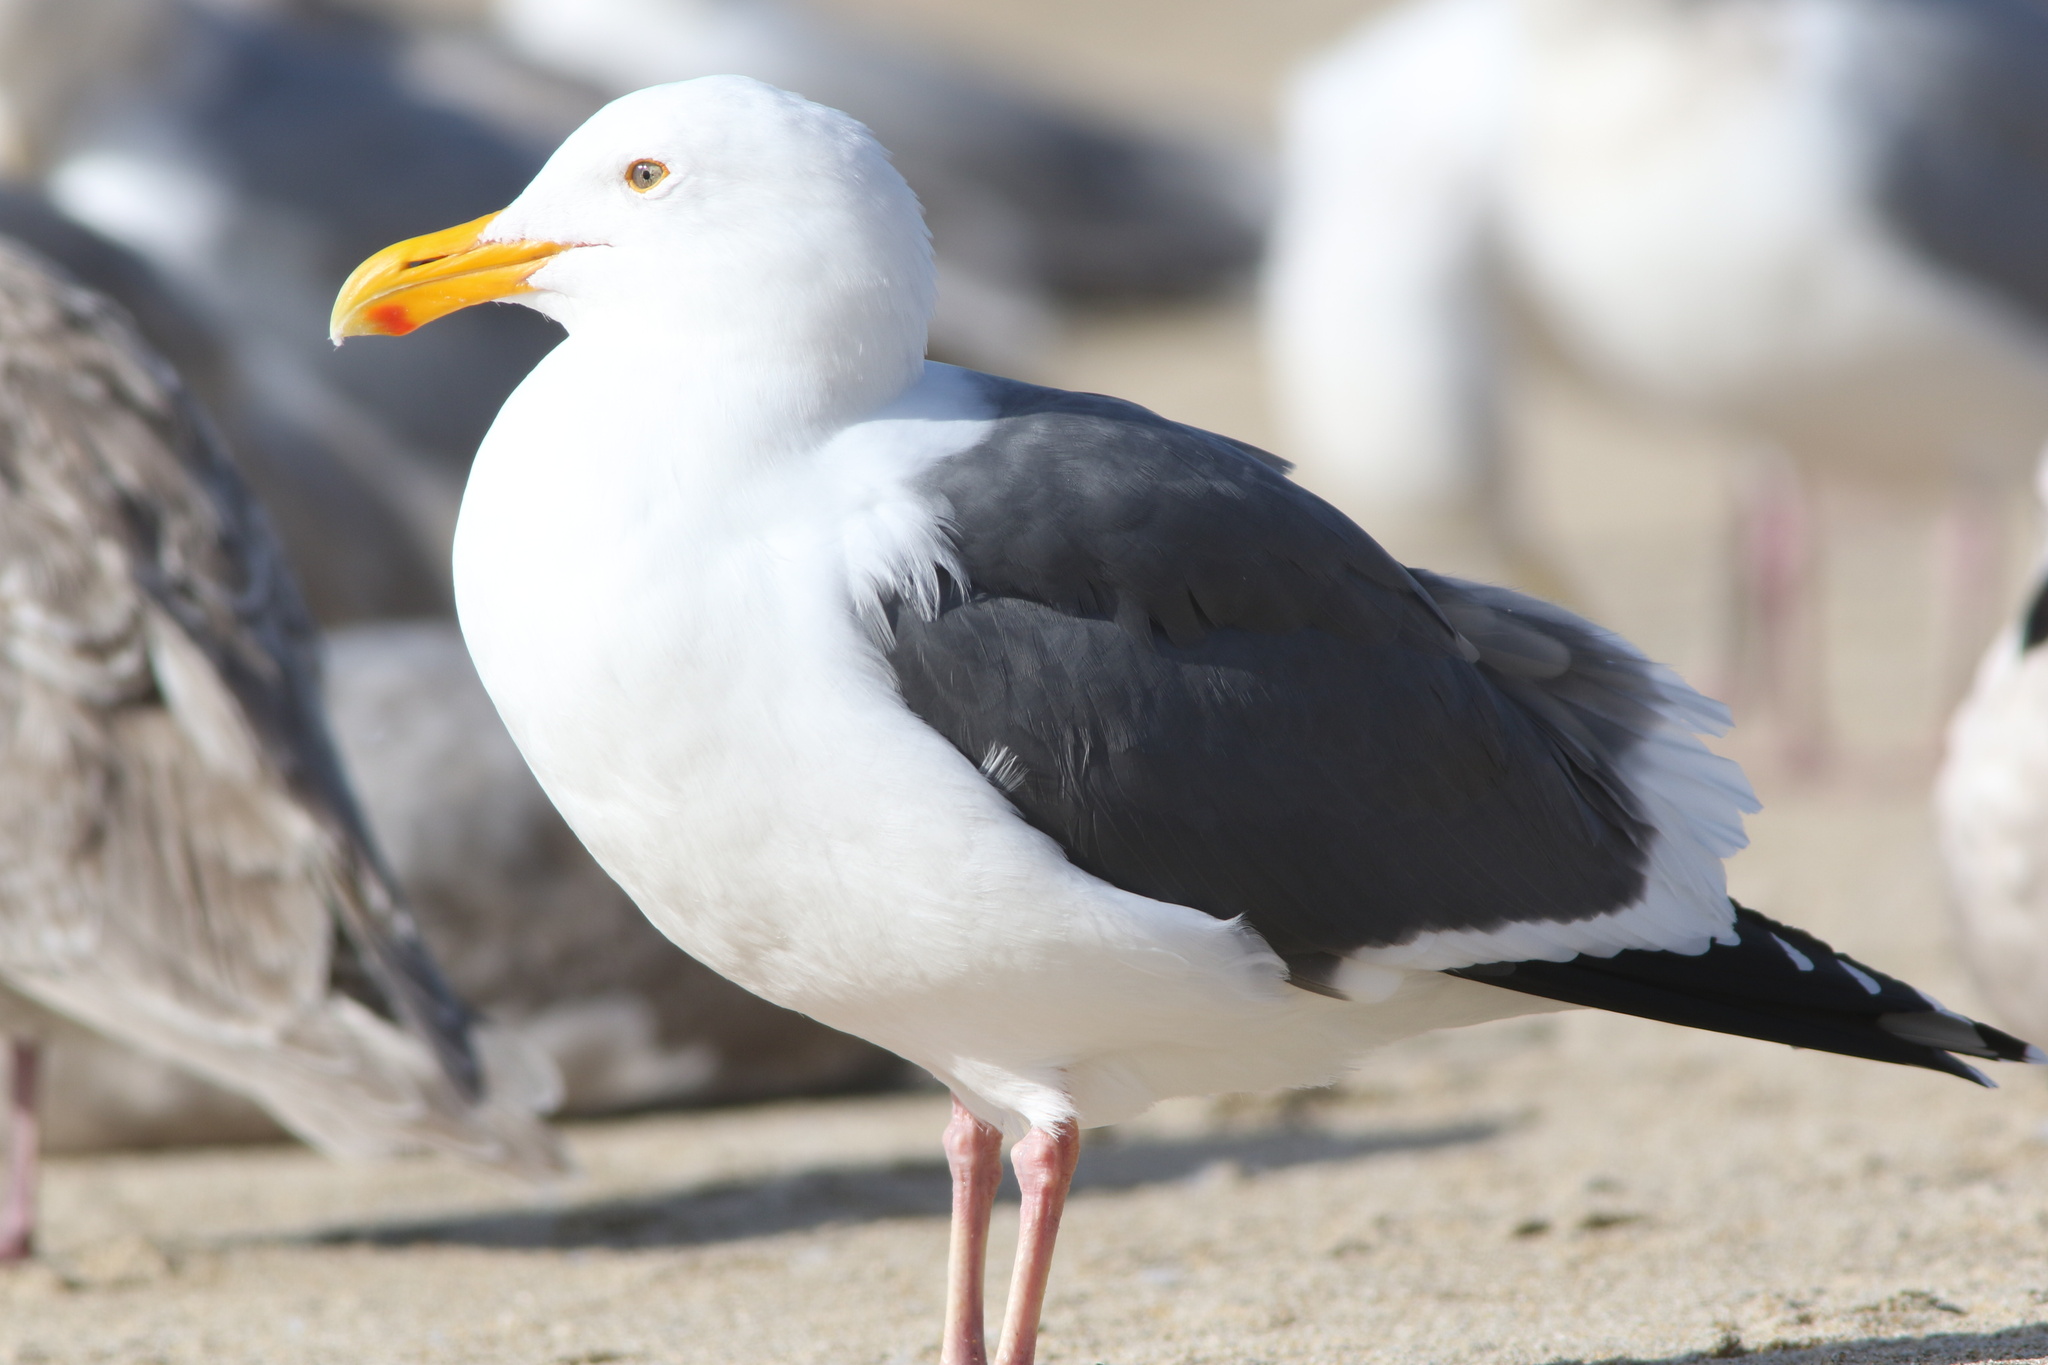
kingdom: Animalia
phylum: Chordata
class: Aves
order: Charadriiformes
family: Laridae
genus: Larus
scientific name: Larus occidentalis
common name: Western gull
